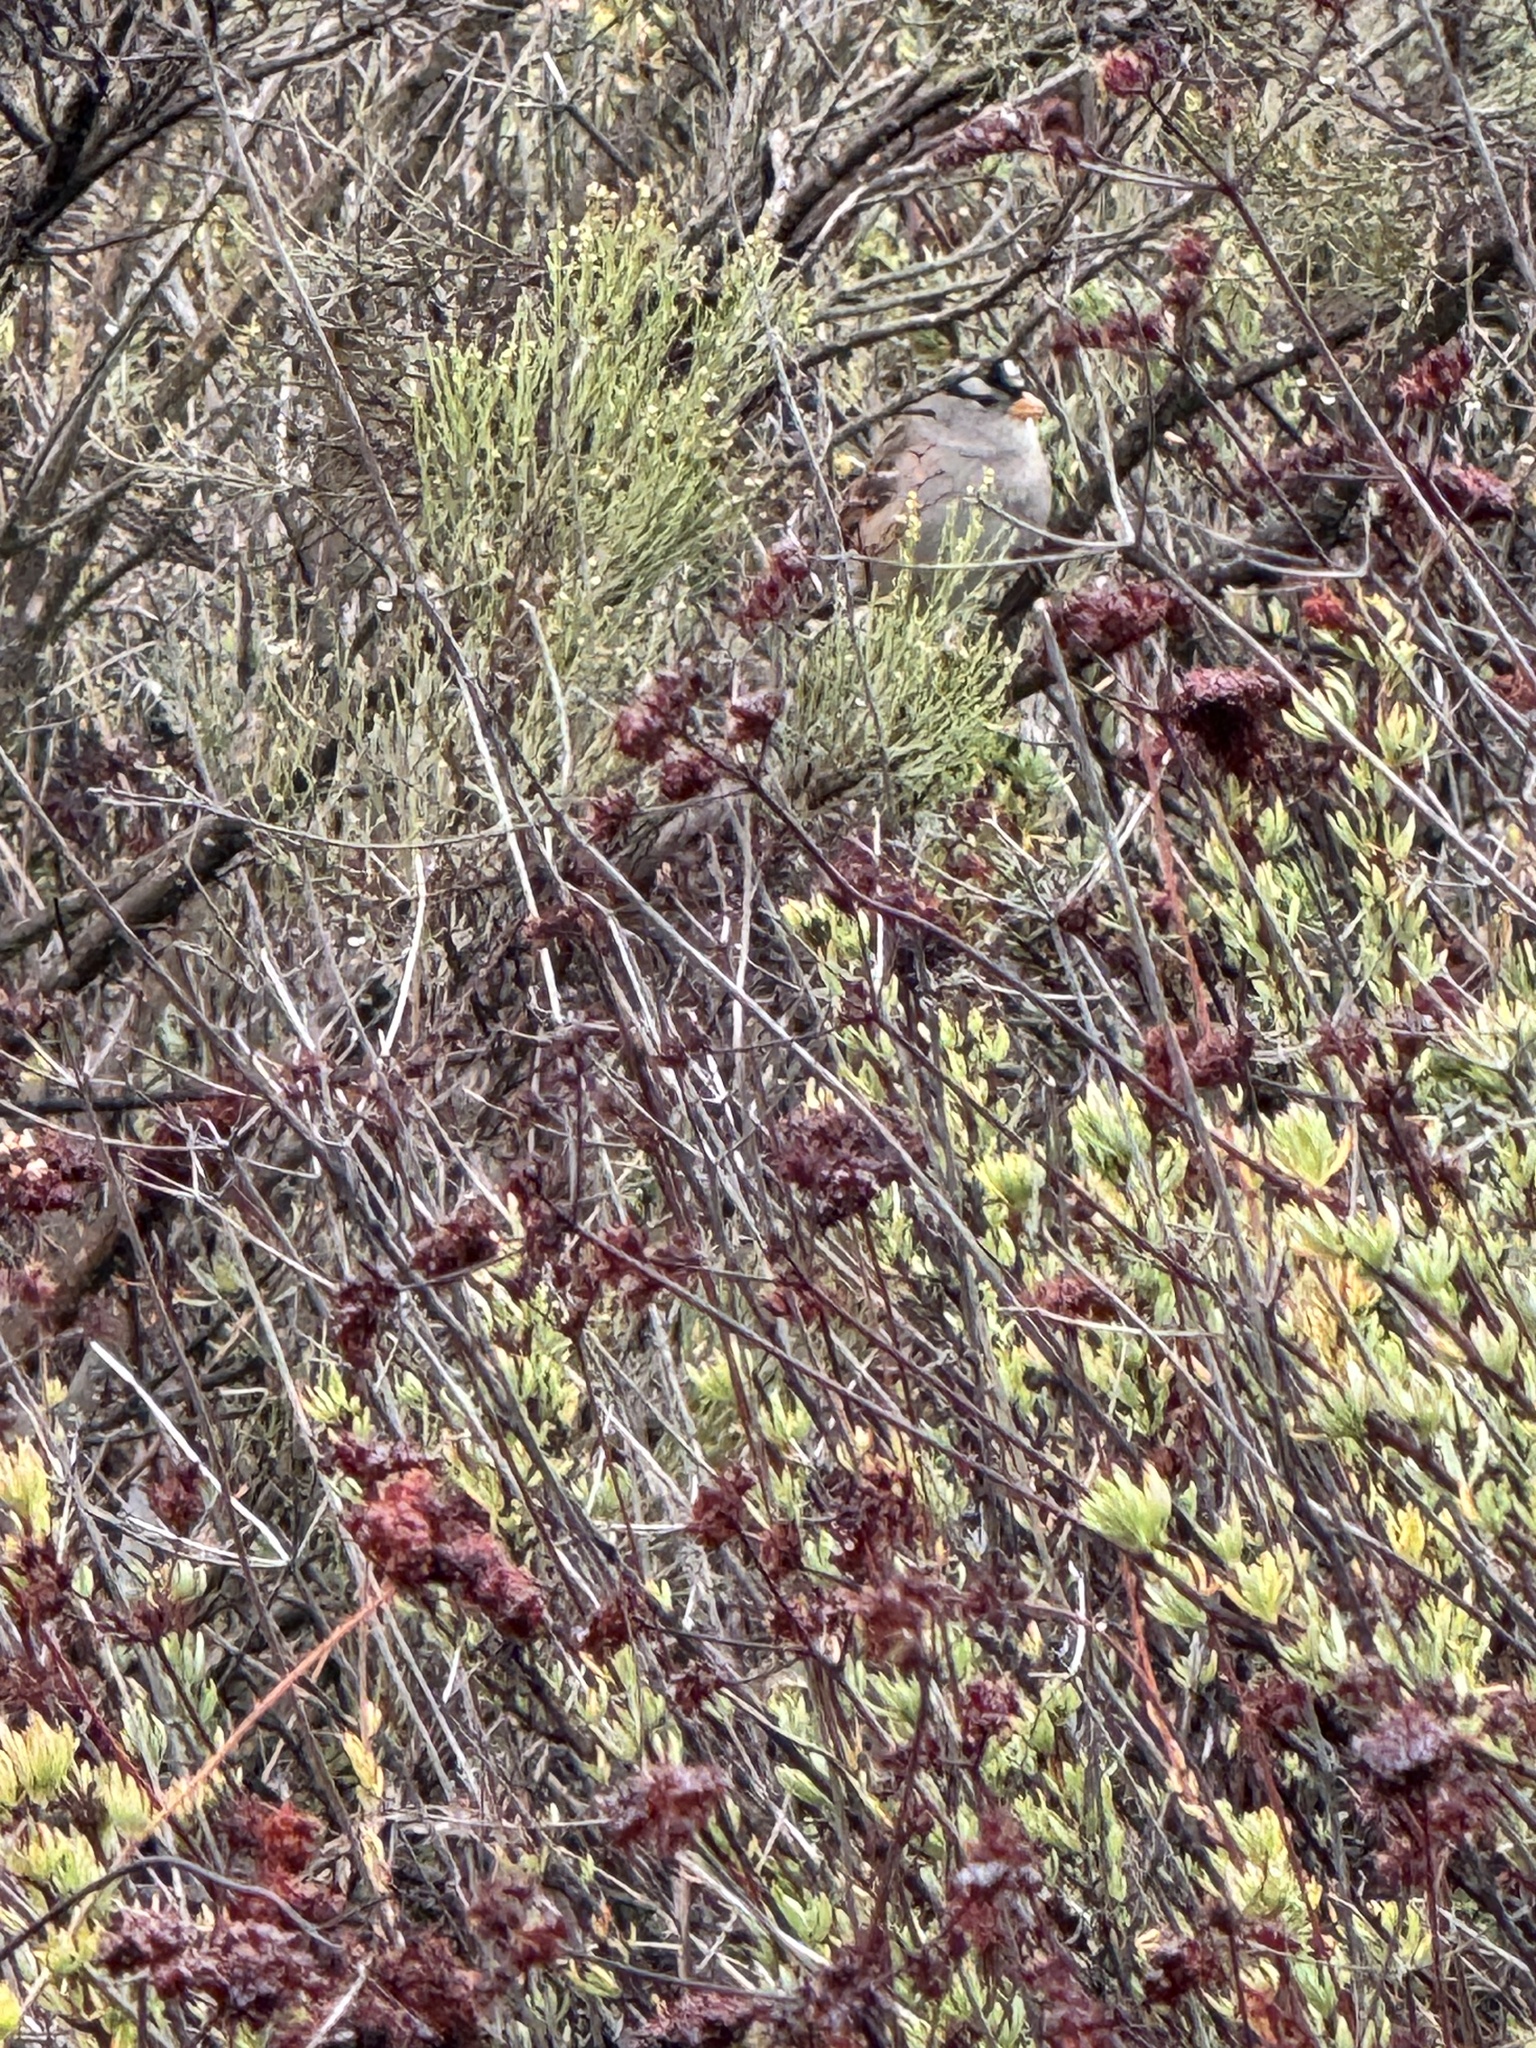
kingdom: Animalia
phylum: Chordata
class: Aves
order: Passeriformes
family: Passerellidae
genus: Zonotrichia
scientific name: Zonotrichia leucophrys
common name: White-crowned sparrow
